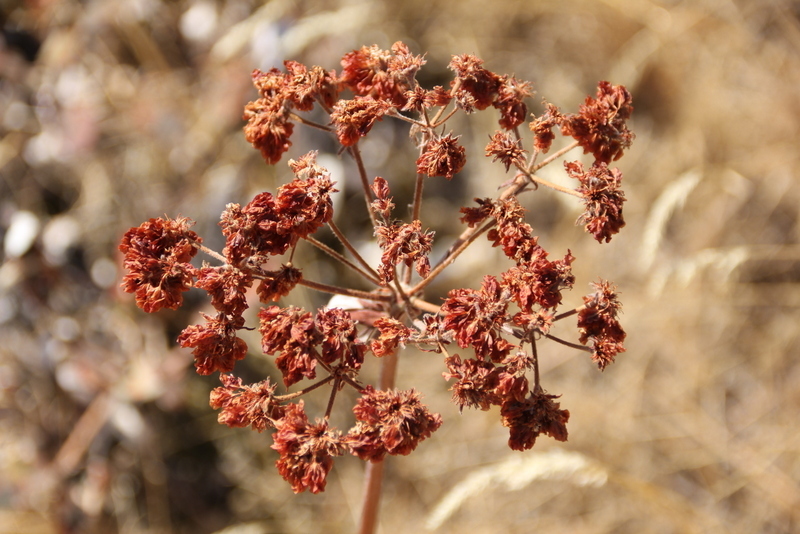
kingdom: Plantae
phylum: Tracheophyta
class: Magnoliopsida
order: Caryophyllales
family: Polygonaceae
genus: Eriogonum
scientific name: Eriogonum compositum
